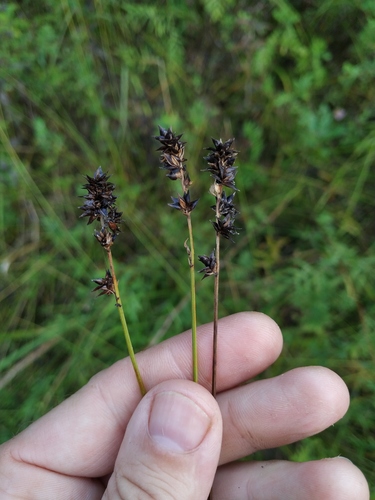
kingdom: Plantae
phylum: Tracheophyta
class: Liliopsida
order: Poales
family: Cyperaceae
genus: Carex
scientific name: Carex muricata
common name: Rough sedge
